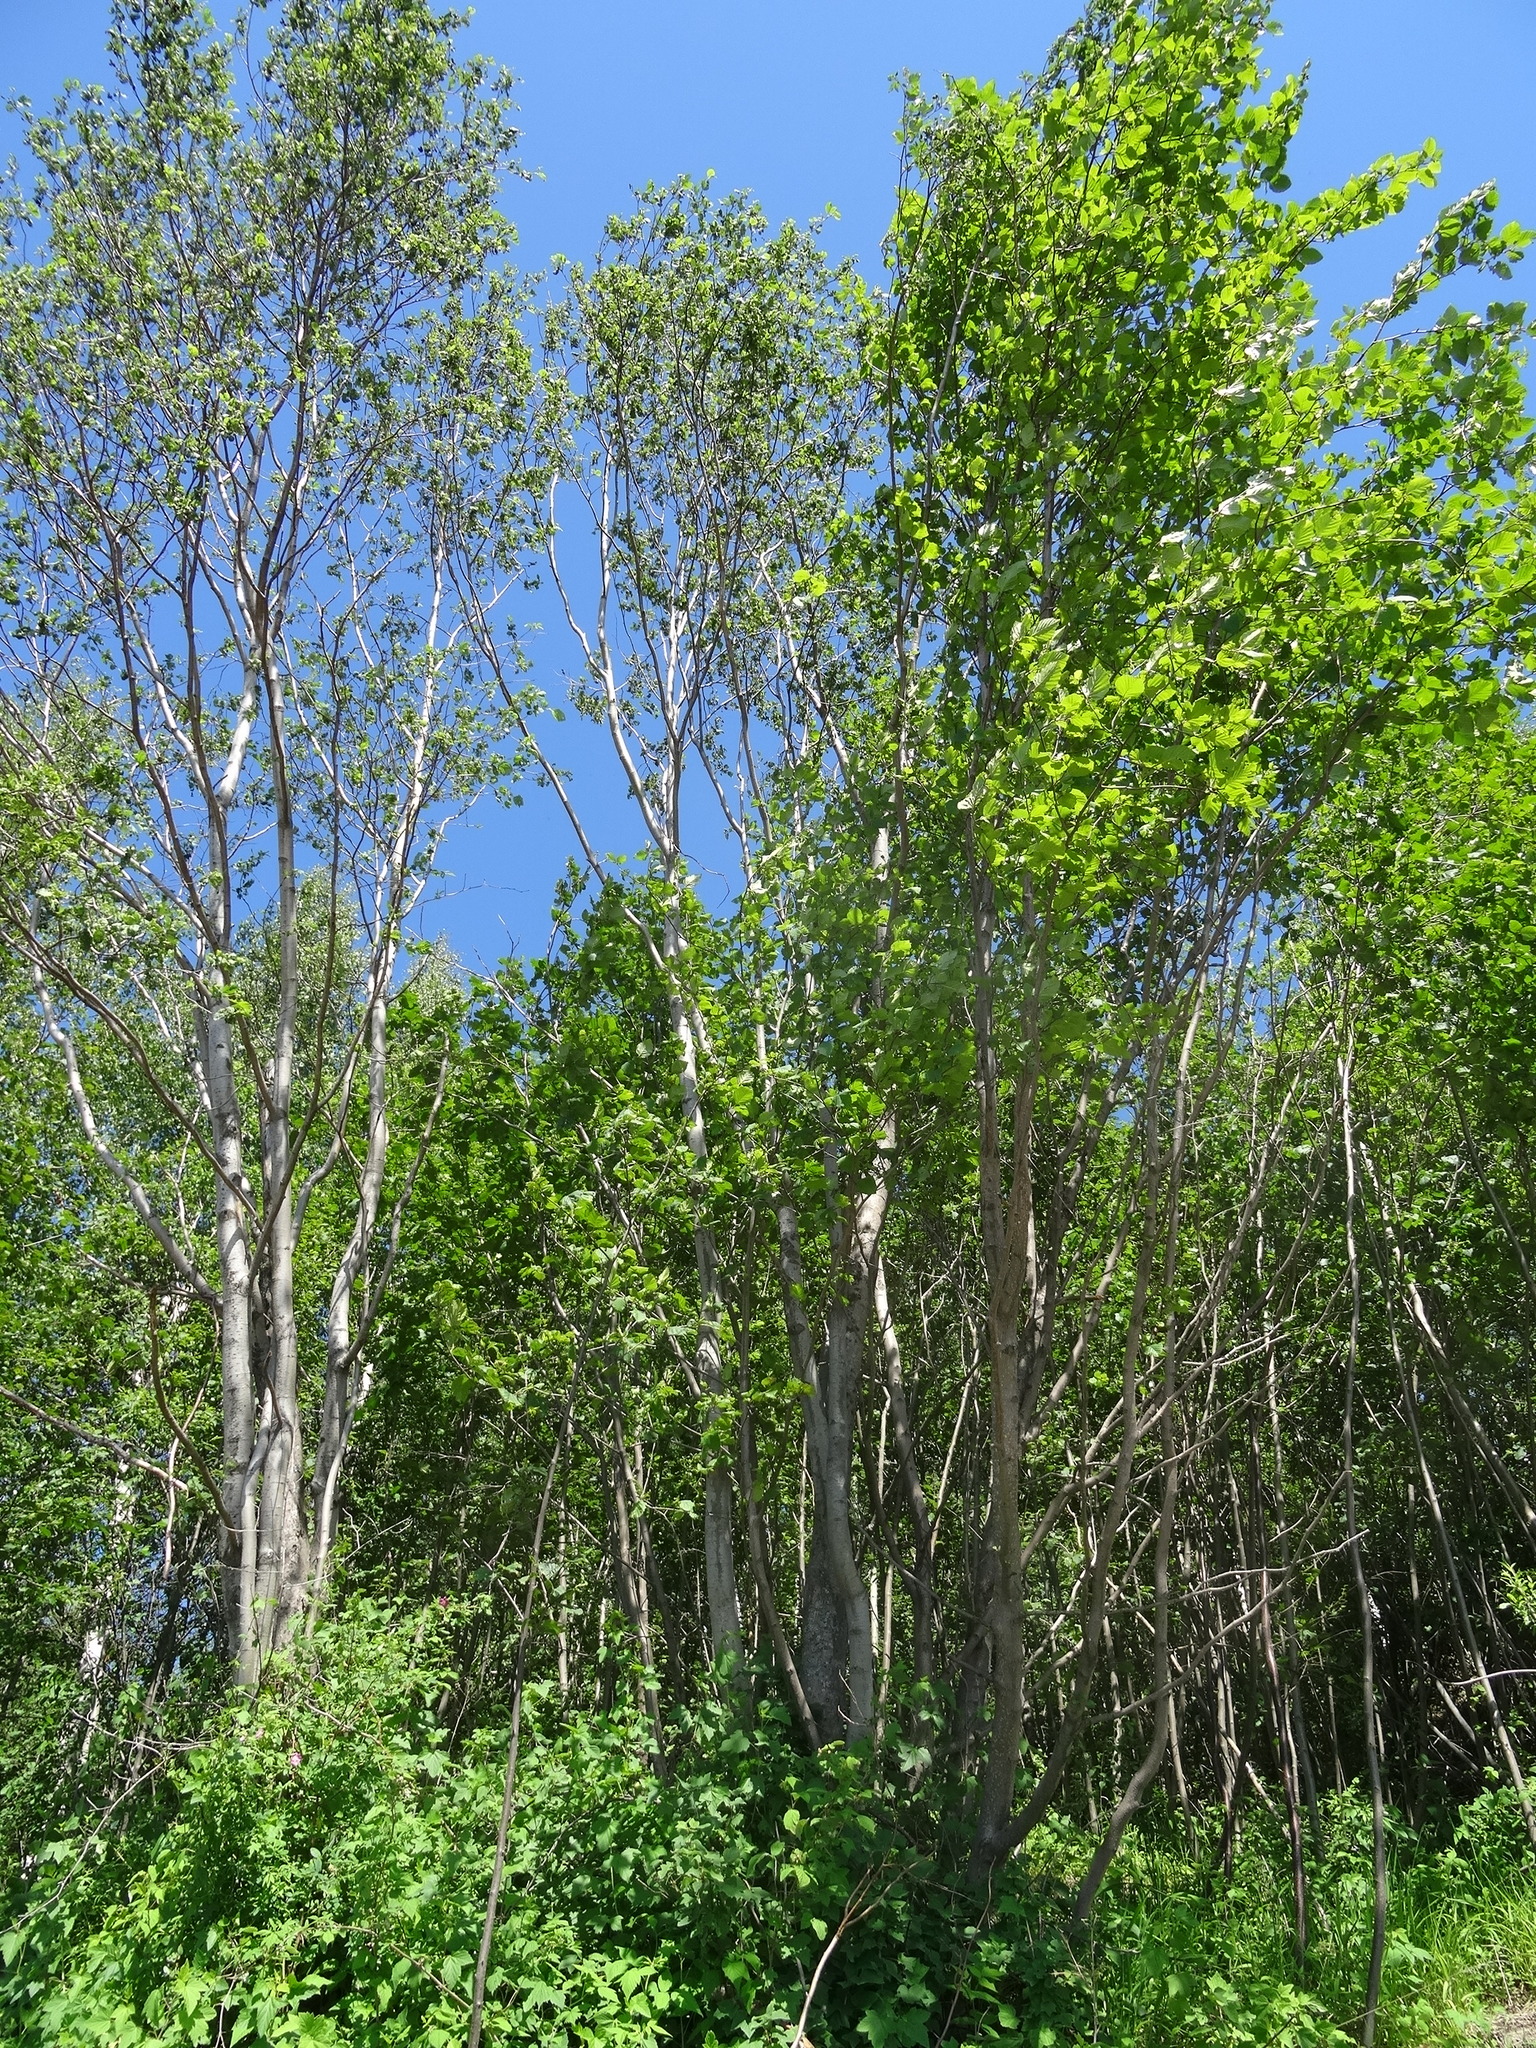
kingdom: Plantae
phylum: Tracheophyta
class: Magnoliopsida
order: Fagales
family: Betulaceae
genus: Alnus
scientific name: Alnus incana
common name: Grey alder
